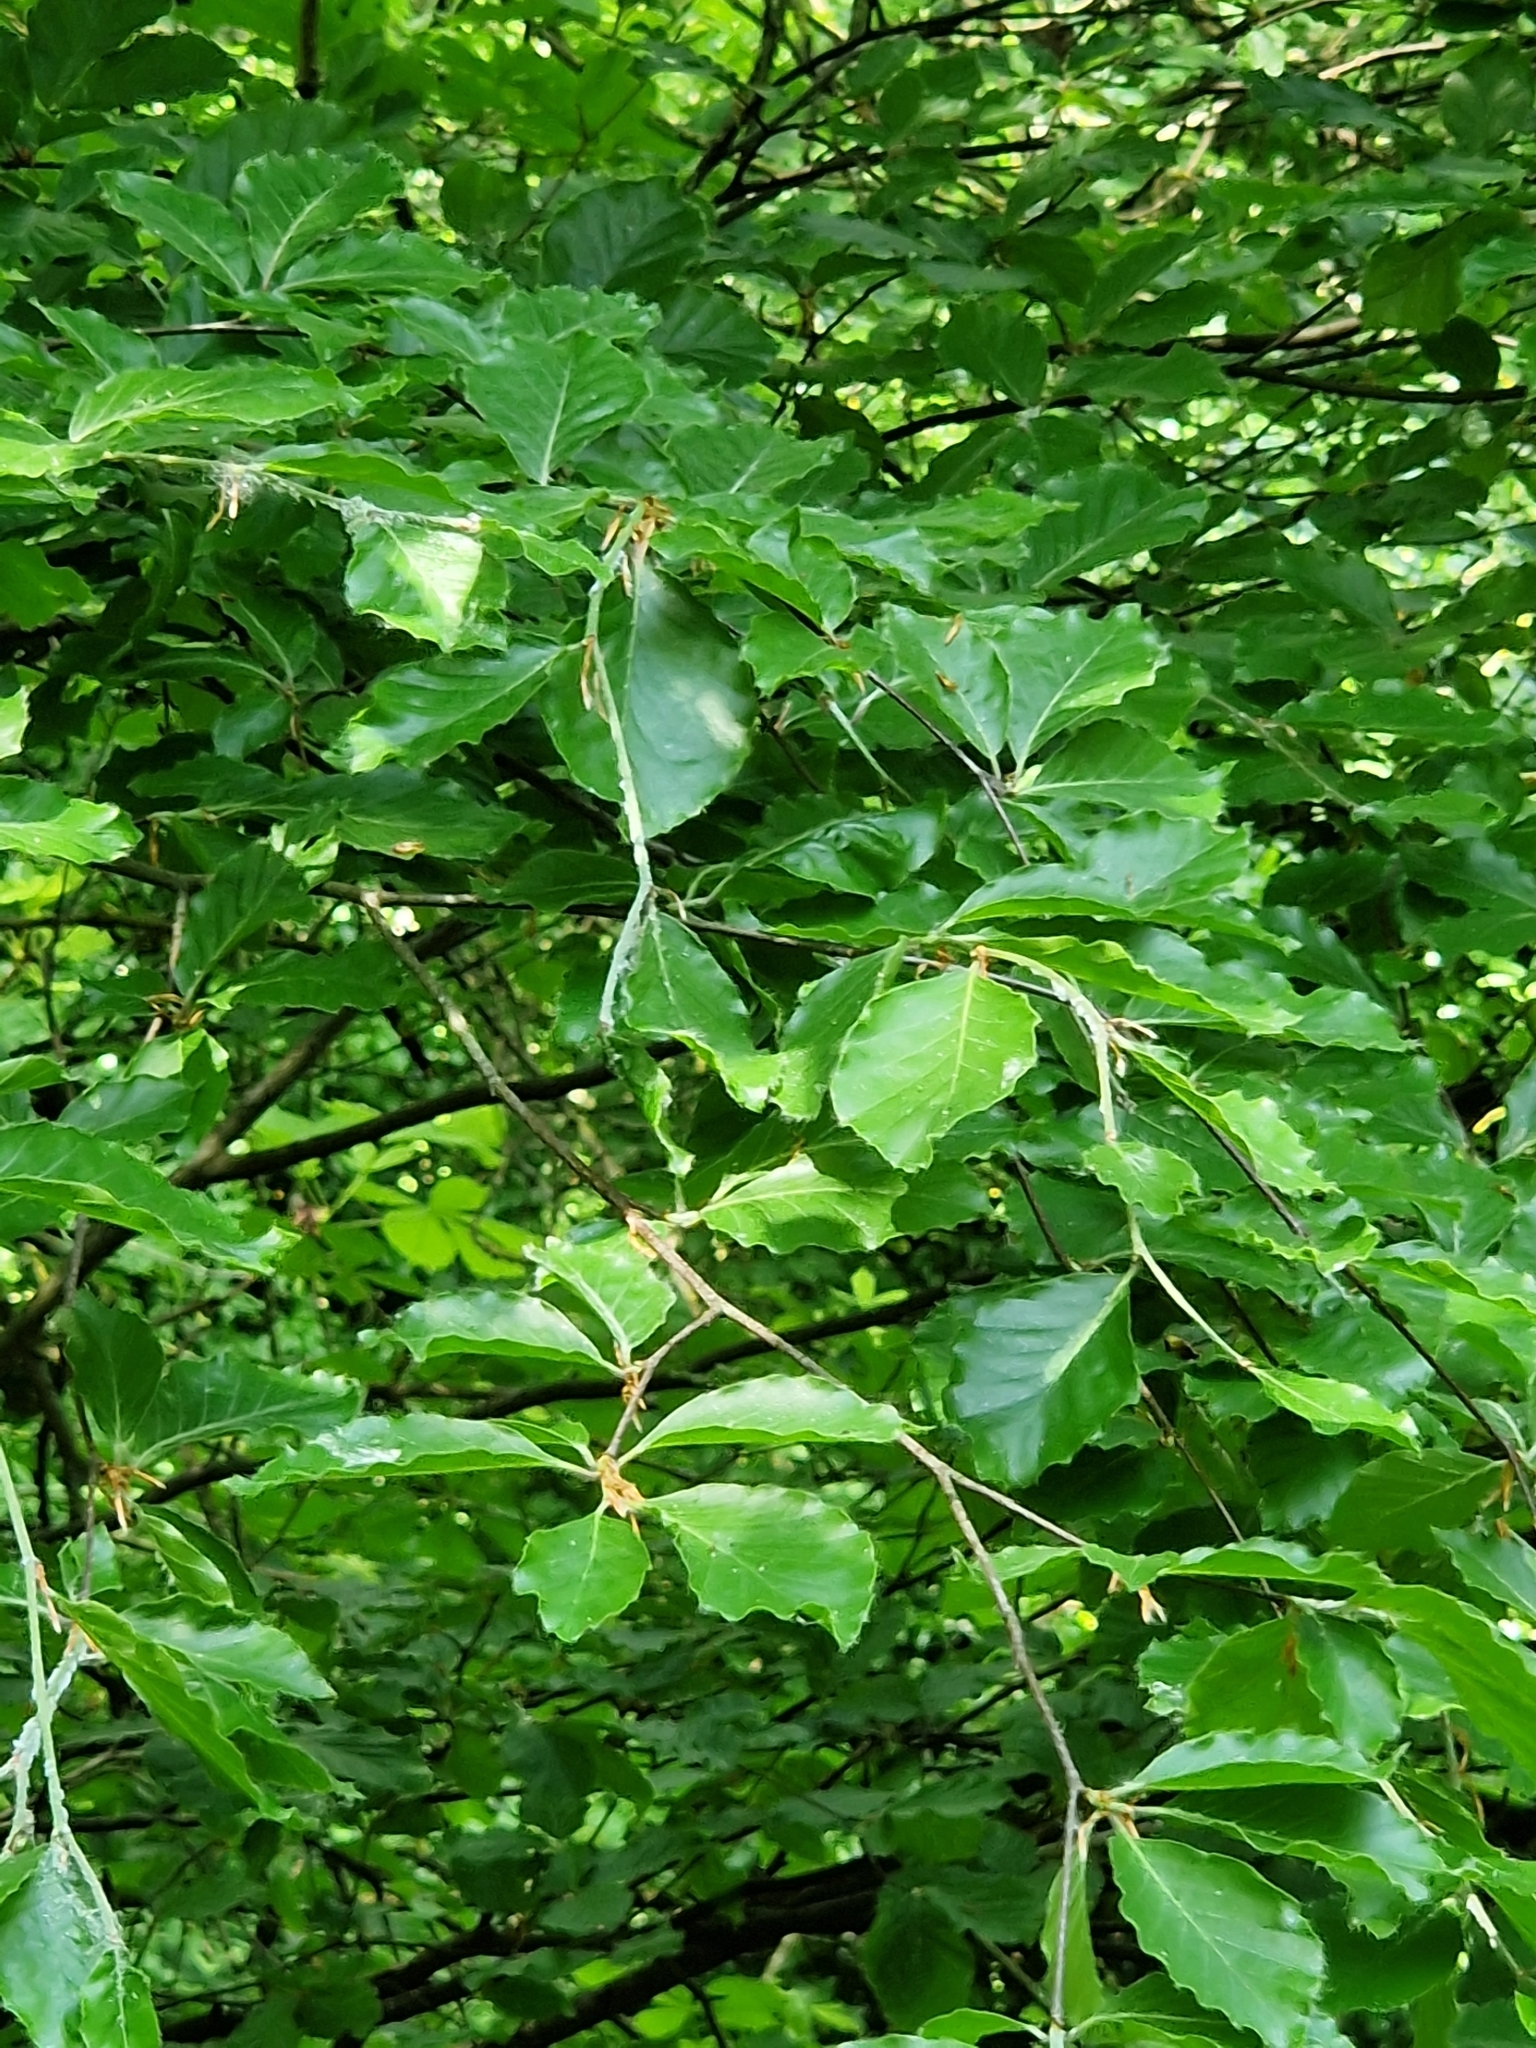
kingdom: Plantae
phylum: Tracheophyta
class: Magnoliopsida
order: Fagales
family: Fagaceae
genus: Fagus
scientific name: Fagus sylvatica
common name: Beech
